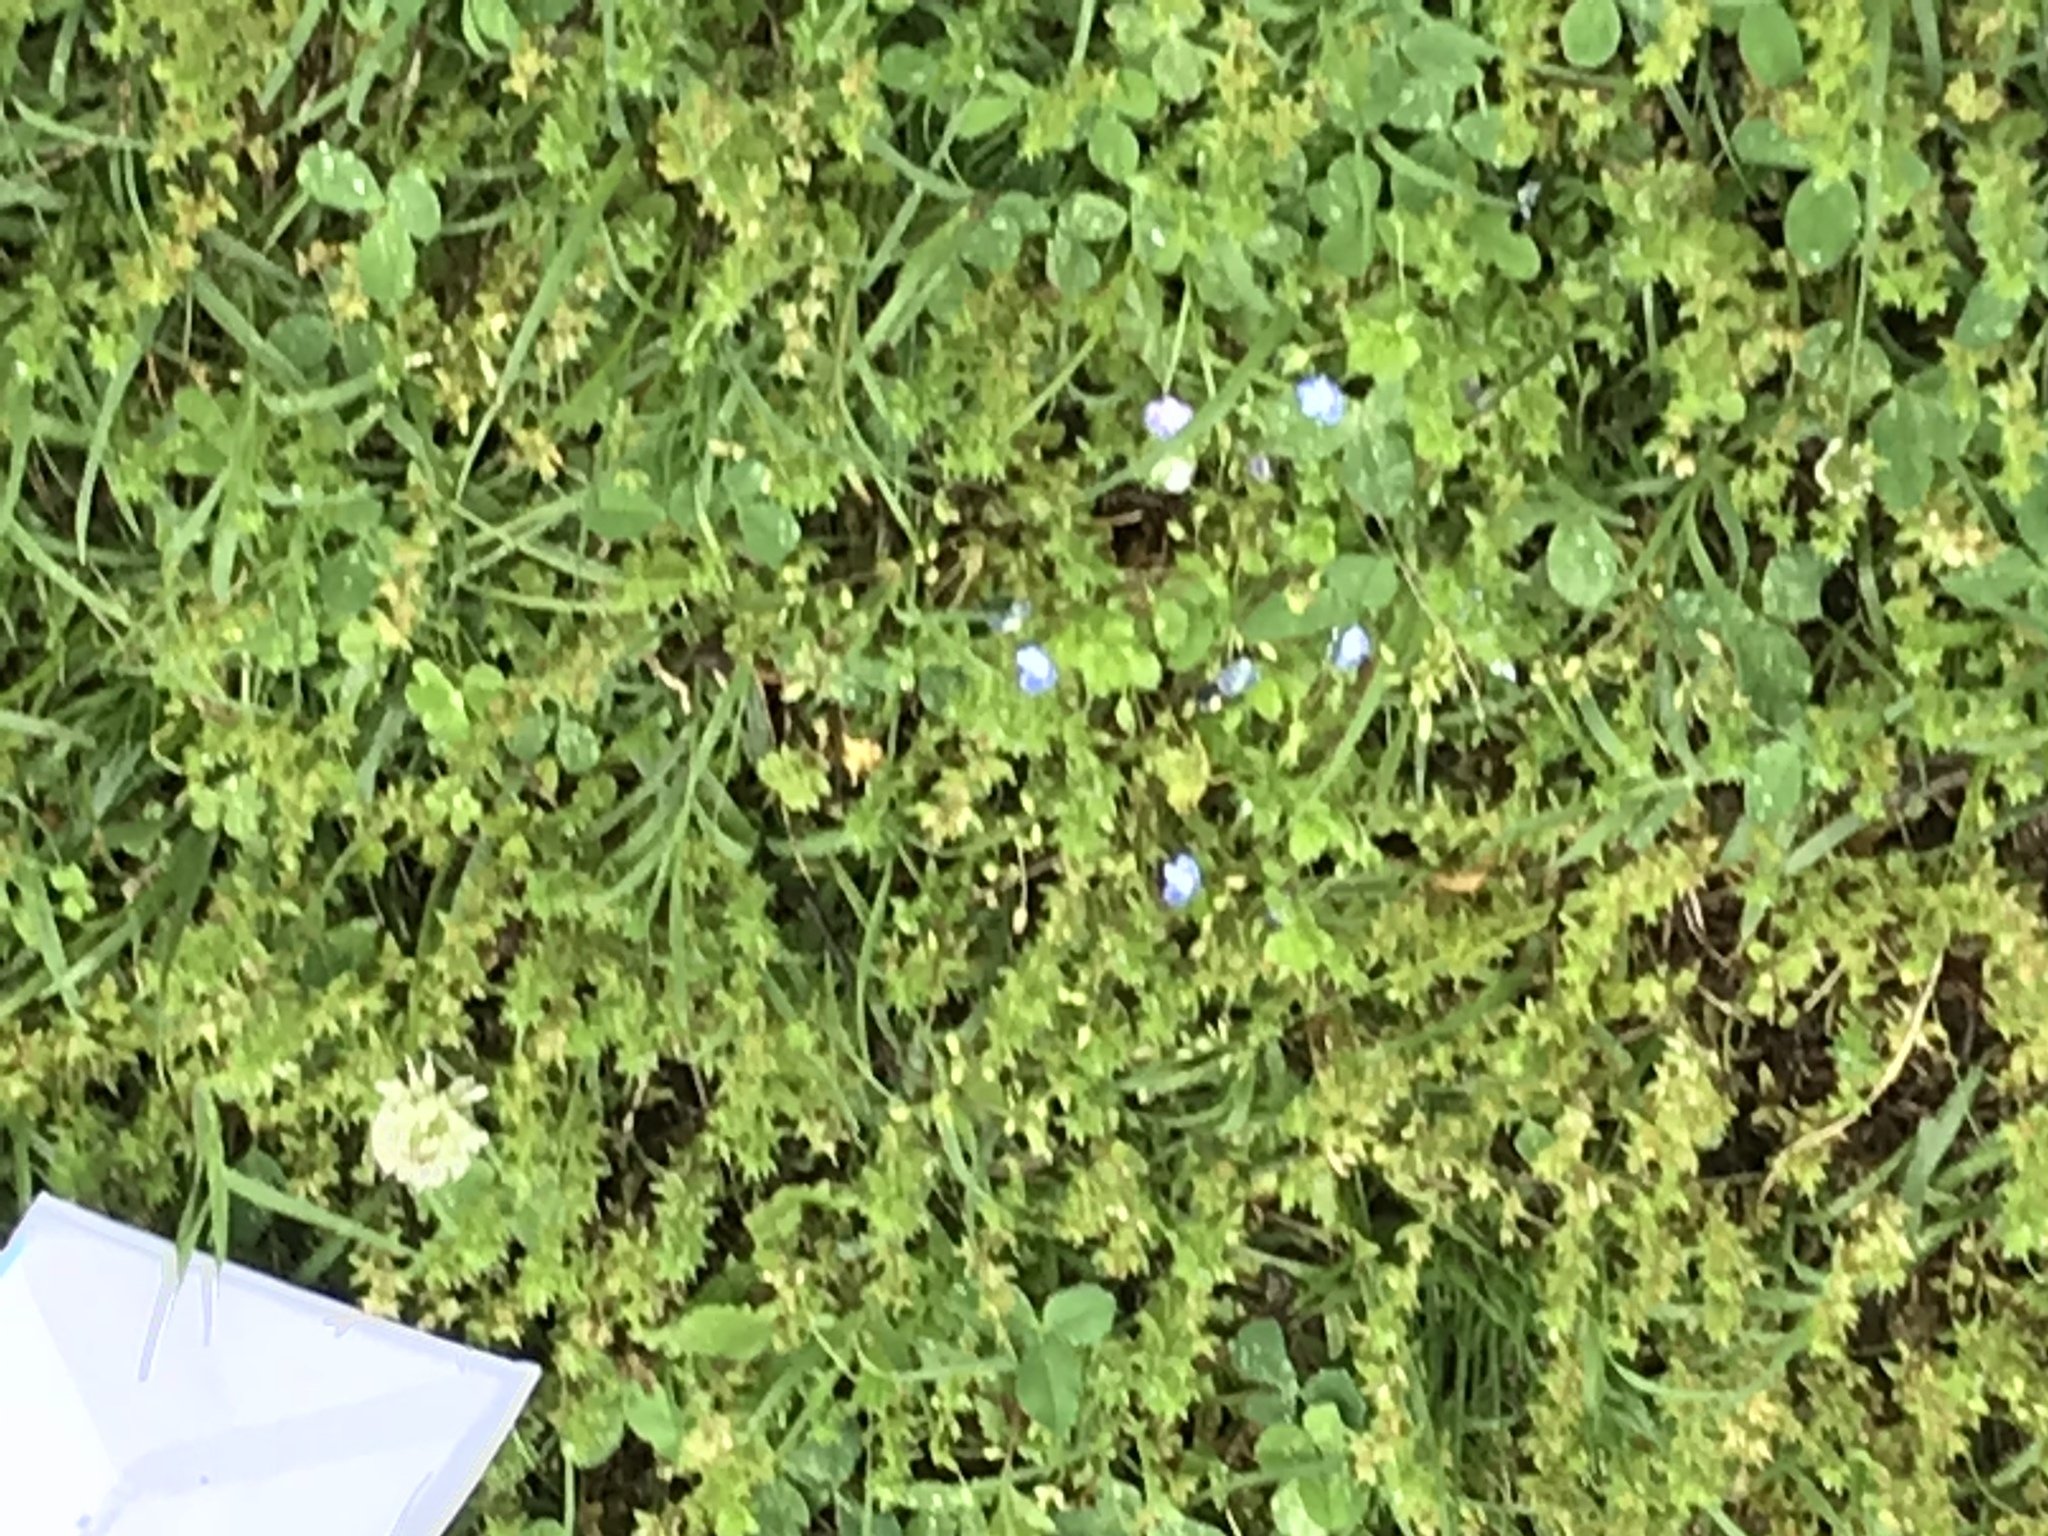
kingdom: Plantae
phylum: Tracheophyta
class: Magnoliopsida
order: Lamiales
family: Plantaginaceae
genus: Veronica
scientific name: Veronica persica
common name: Common field-speedwell
